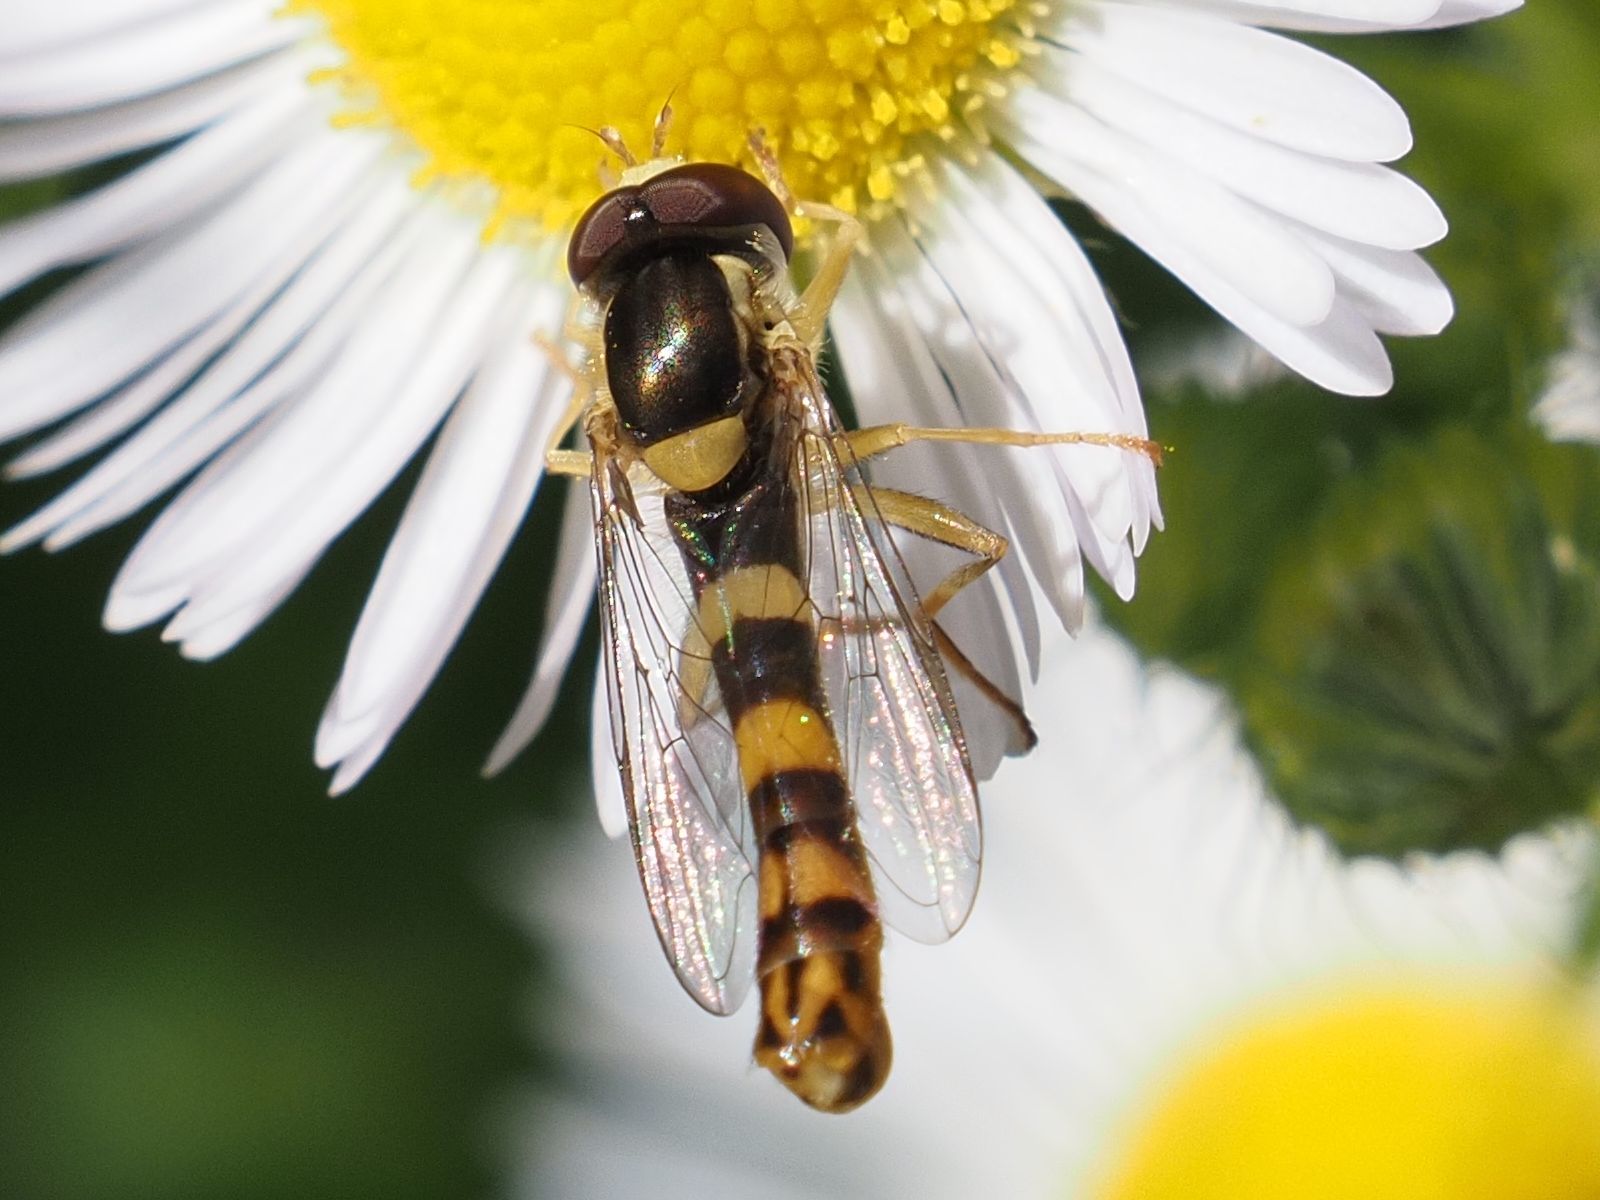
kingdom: Animalia
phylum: Arthropoda
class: Insecta
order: Diptera
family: Syrphidae
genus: Sphaerophoria
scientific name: Sphaerophoria
